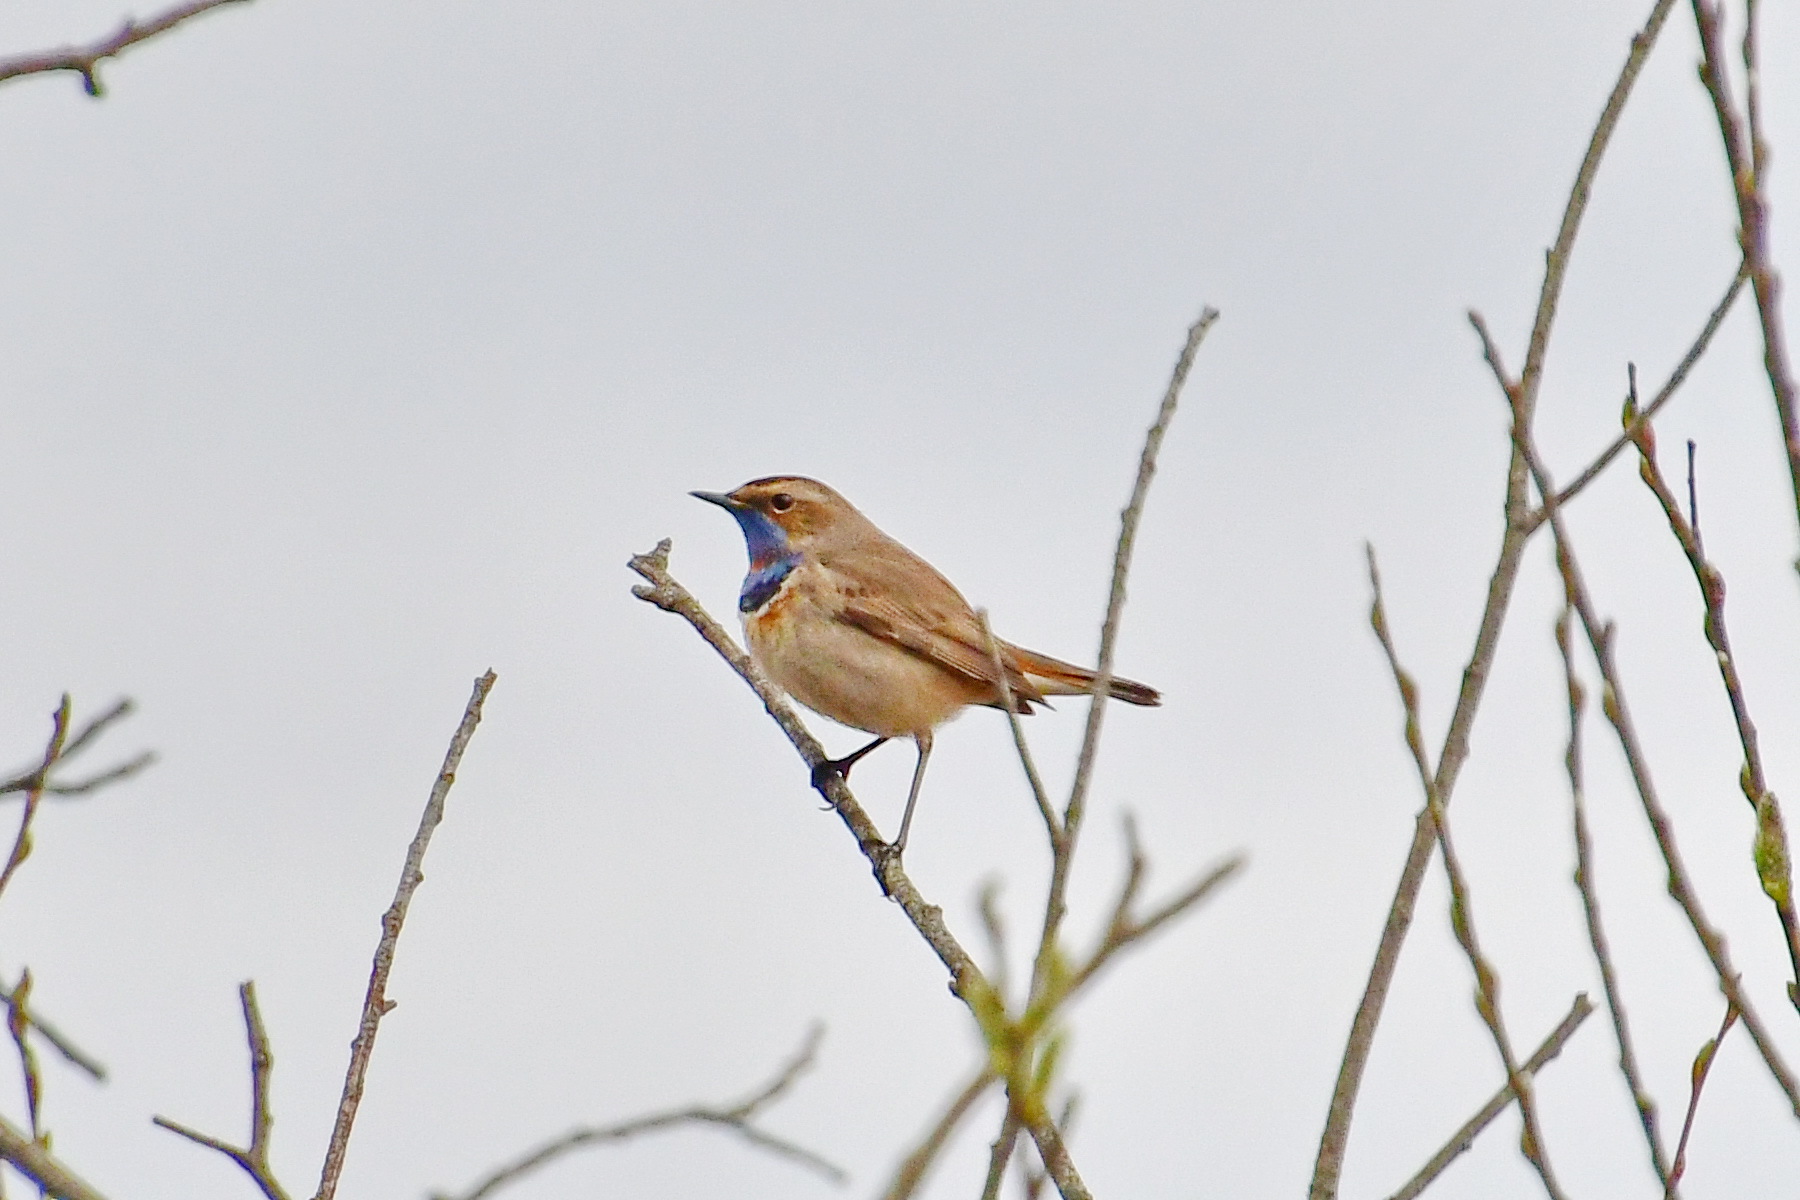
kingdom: Animalia
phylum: Chordata
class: Aves
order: Passeriformes
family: Muscicapidae
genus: Luscinia
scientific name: Luscinia svecica
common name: Bluethroat
